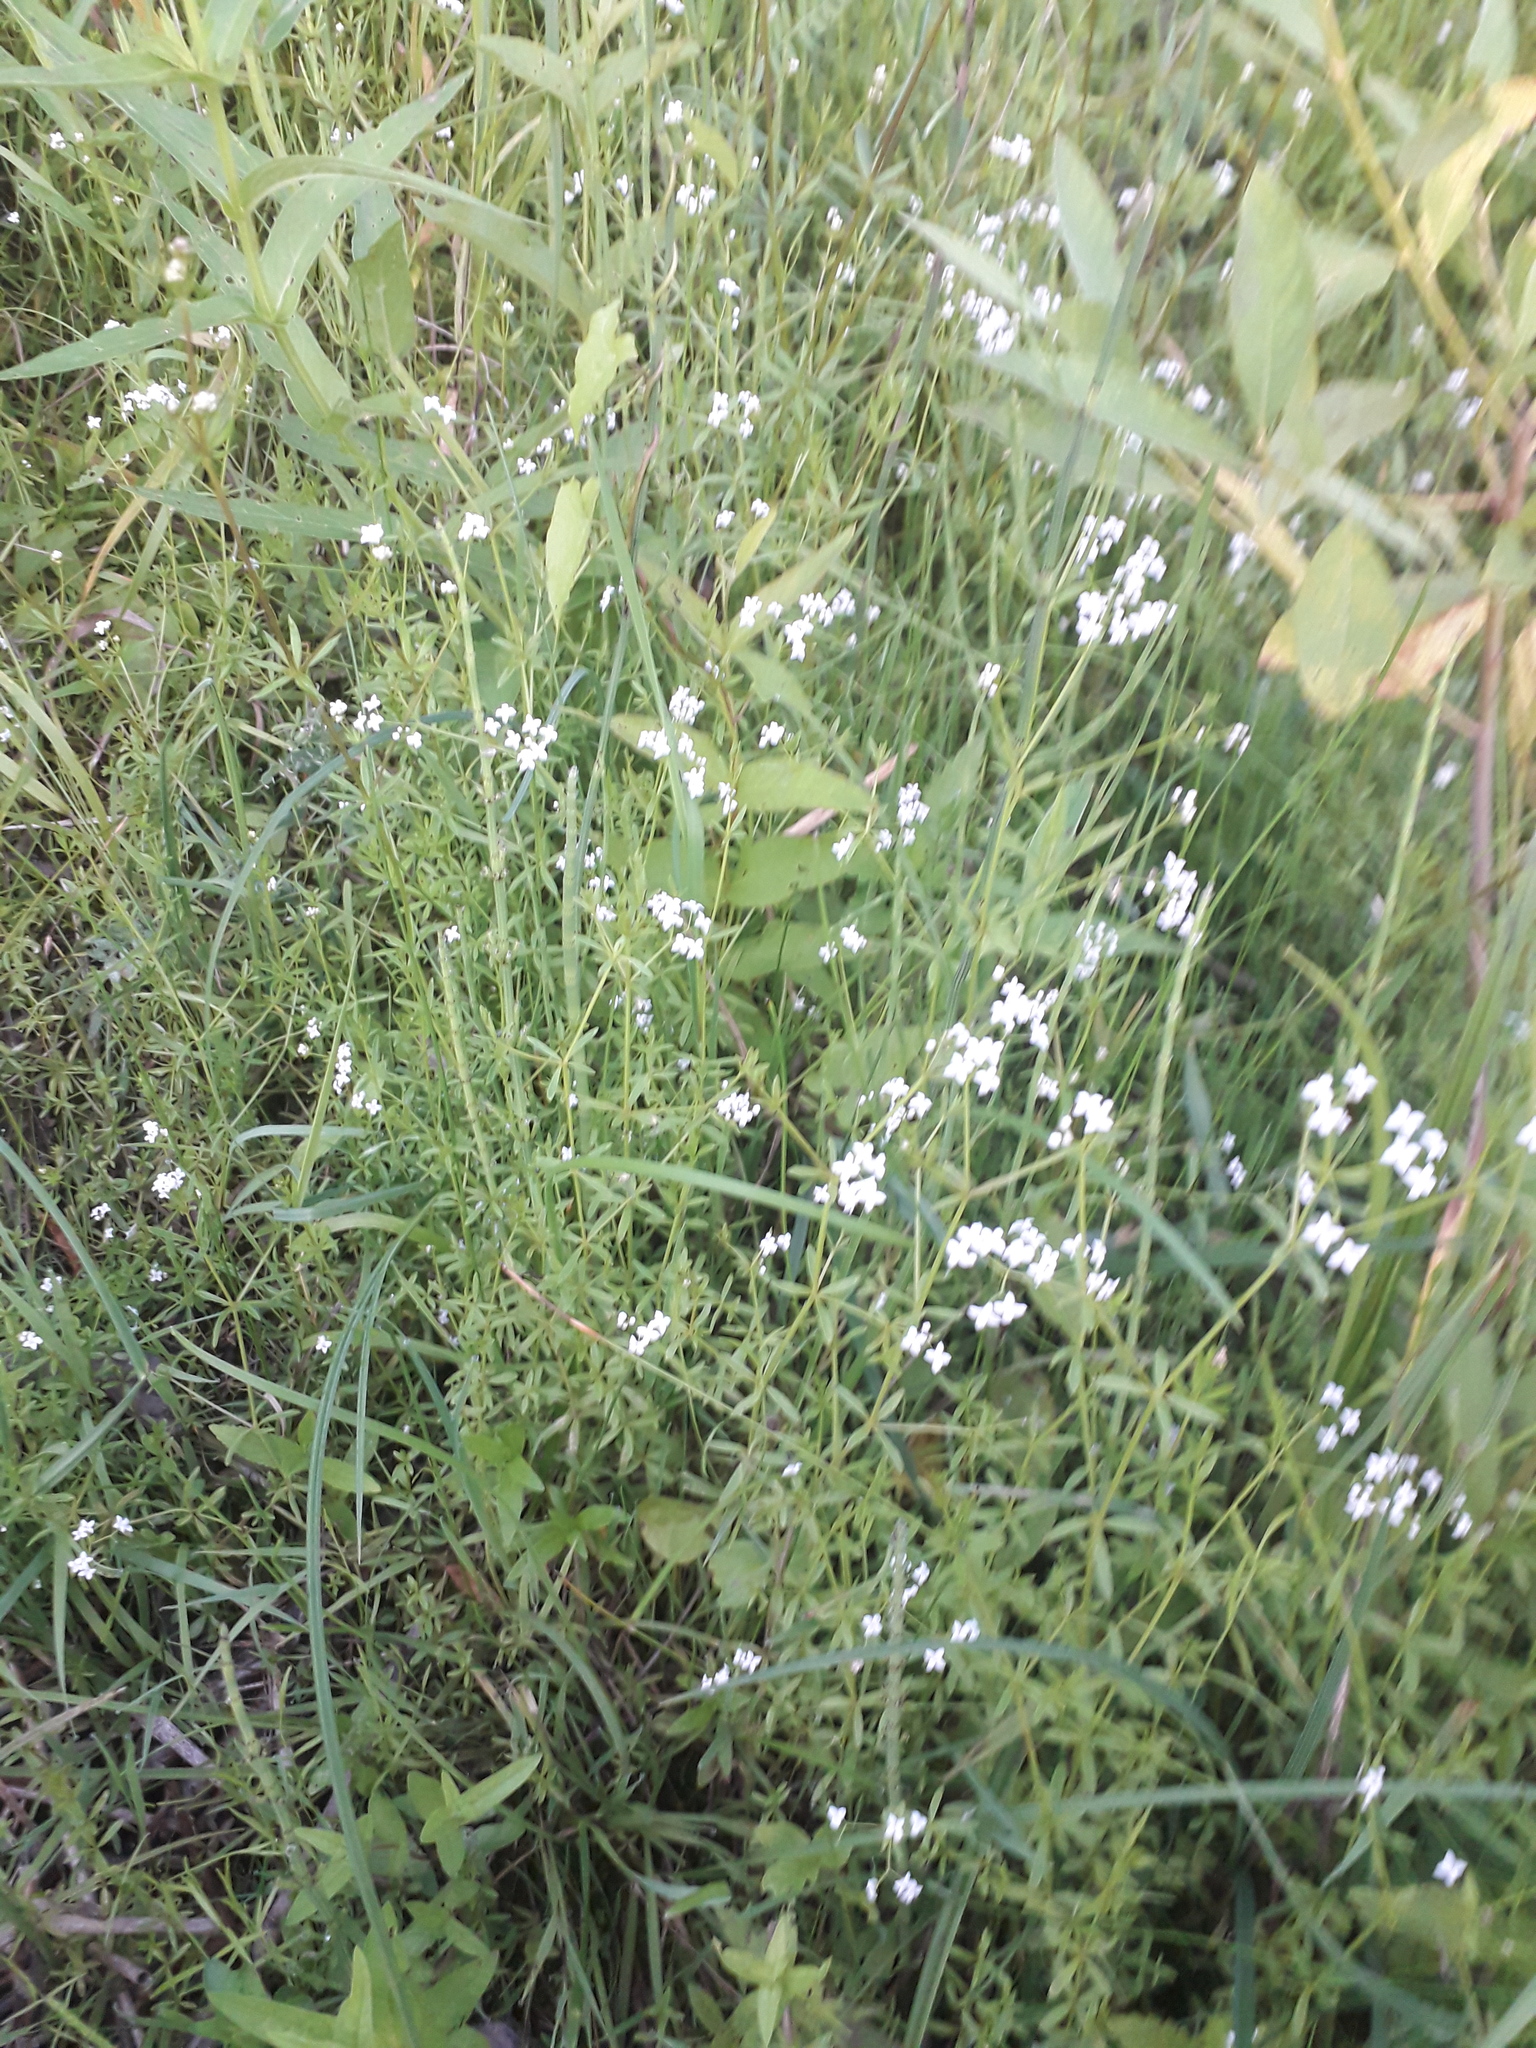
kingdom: Plantae
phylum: Tracheophyta
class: Magnoliopsida
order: Gentianales
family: Rubiaceae
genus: Galium
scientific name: Galium palustre
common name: Common marsh-bedstraw
